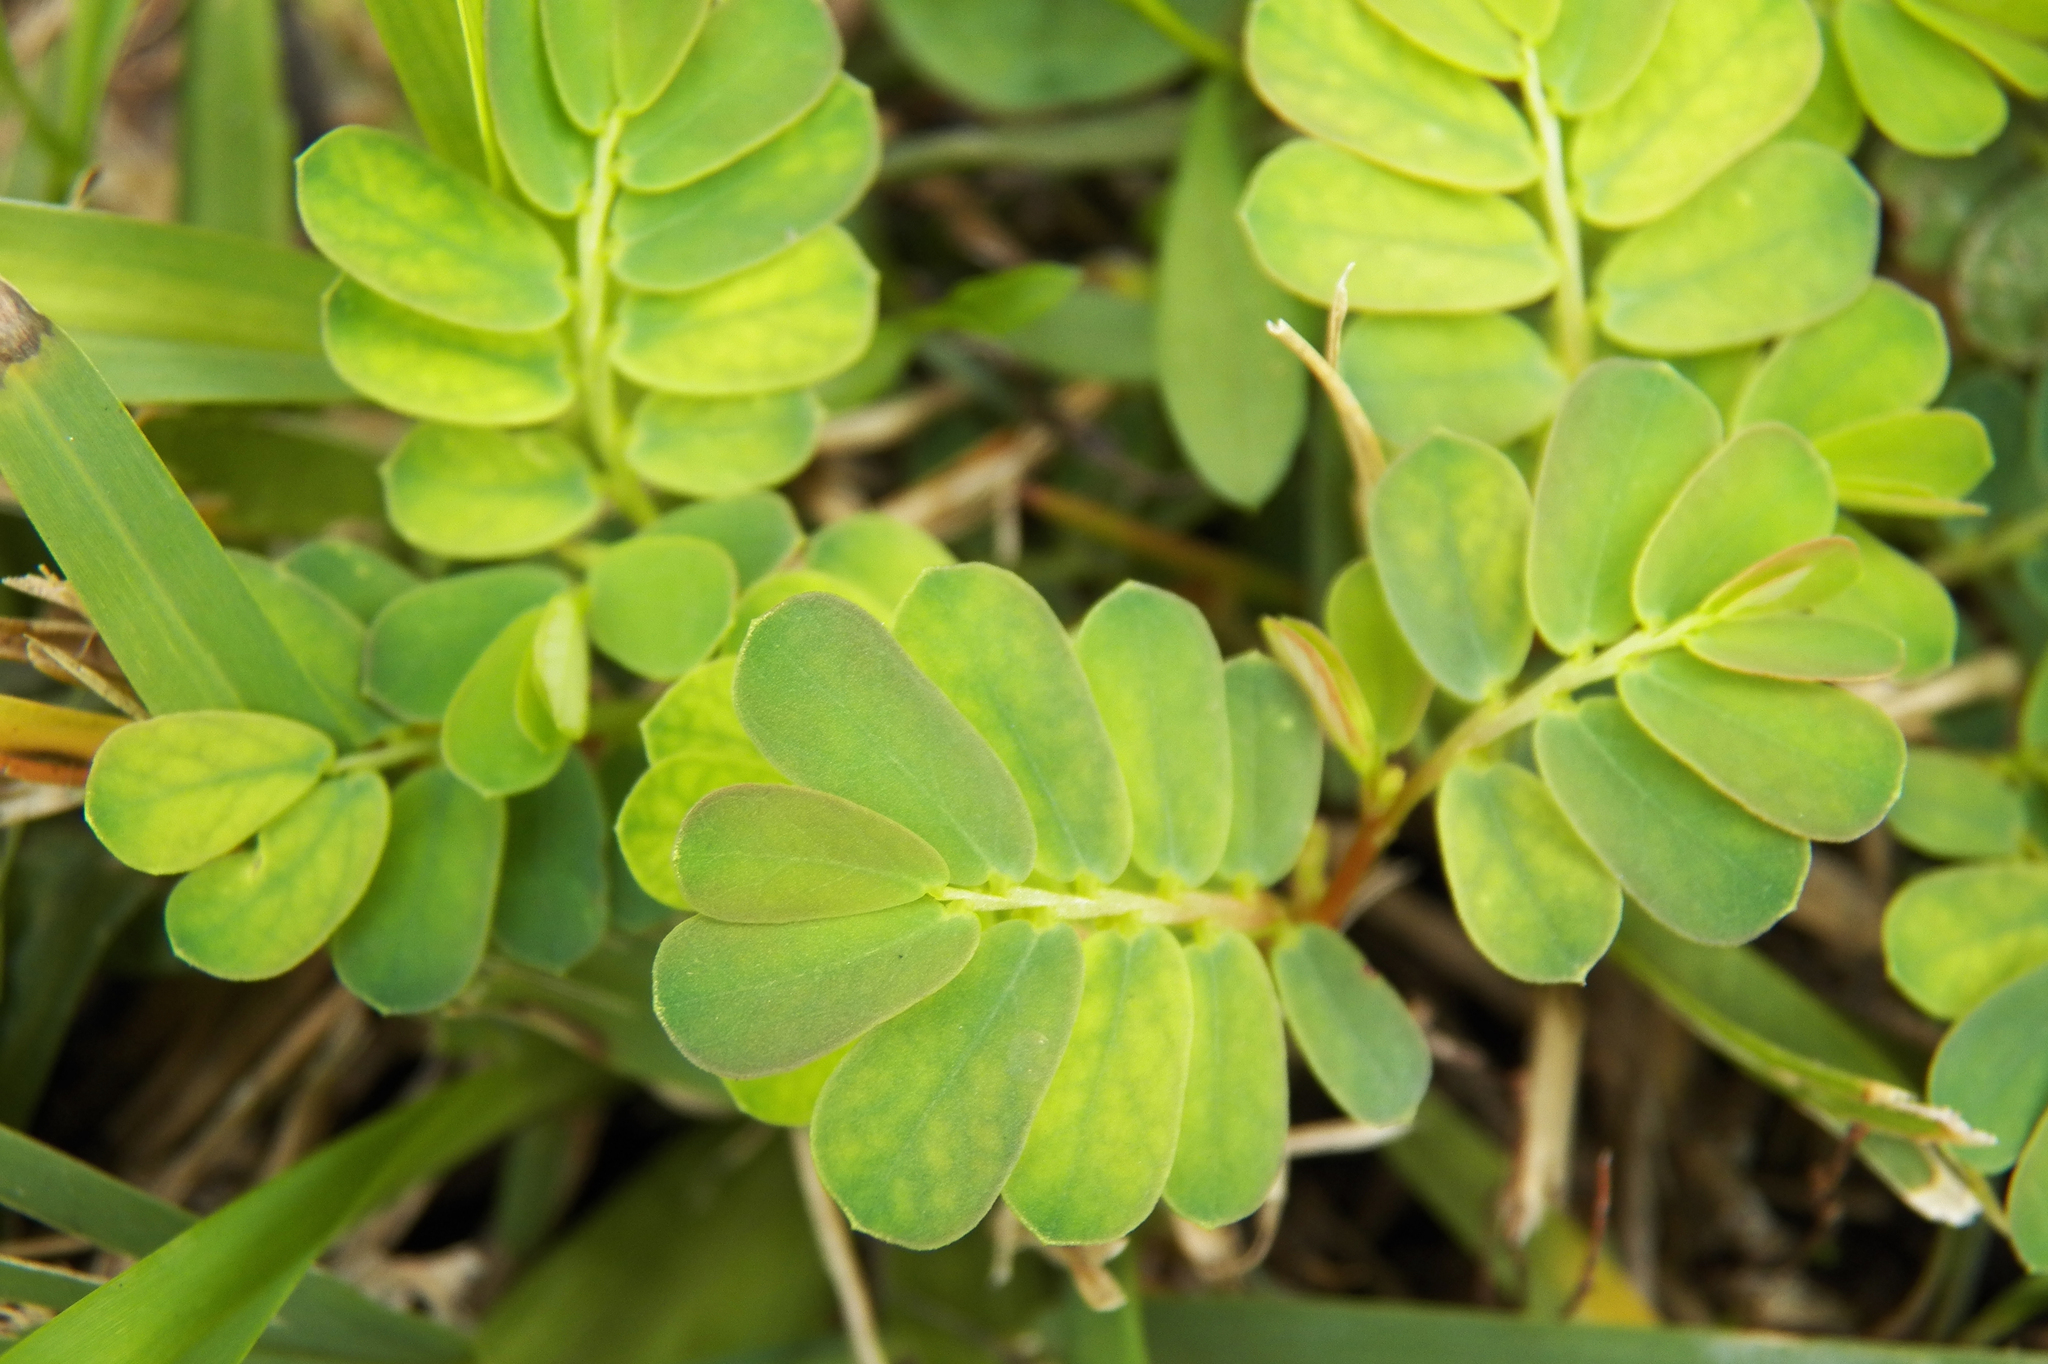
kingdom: Plantae
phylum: Tracheophyta
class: Magnoliopsida
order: Malpighiales
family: Phyllanthaceae
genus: Phyllanthus
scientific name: Phyllanthus urinaria
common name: Chamber bitter
